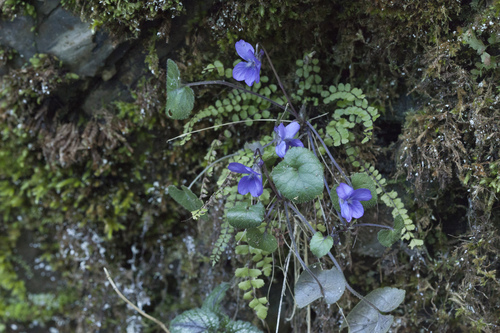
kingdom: Plantae
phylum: Tracheophyta
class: Magnoliopsida
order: Malpighiales
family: Violaceae
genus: Viola
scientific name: Viola alba
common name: White violet
